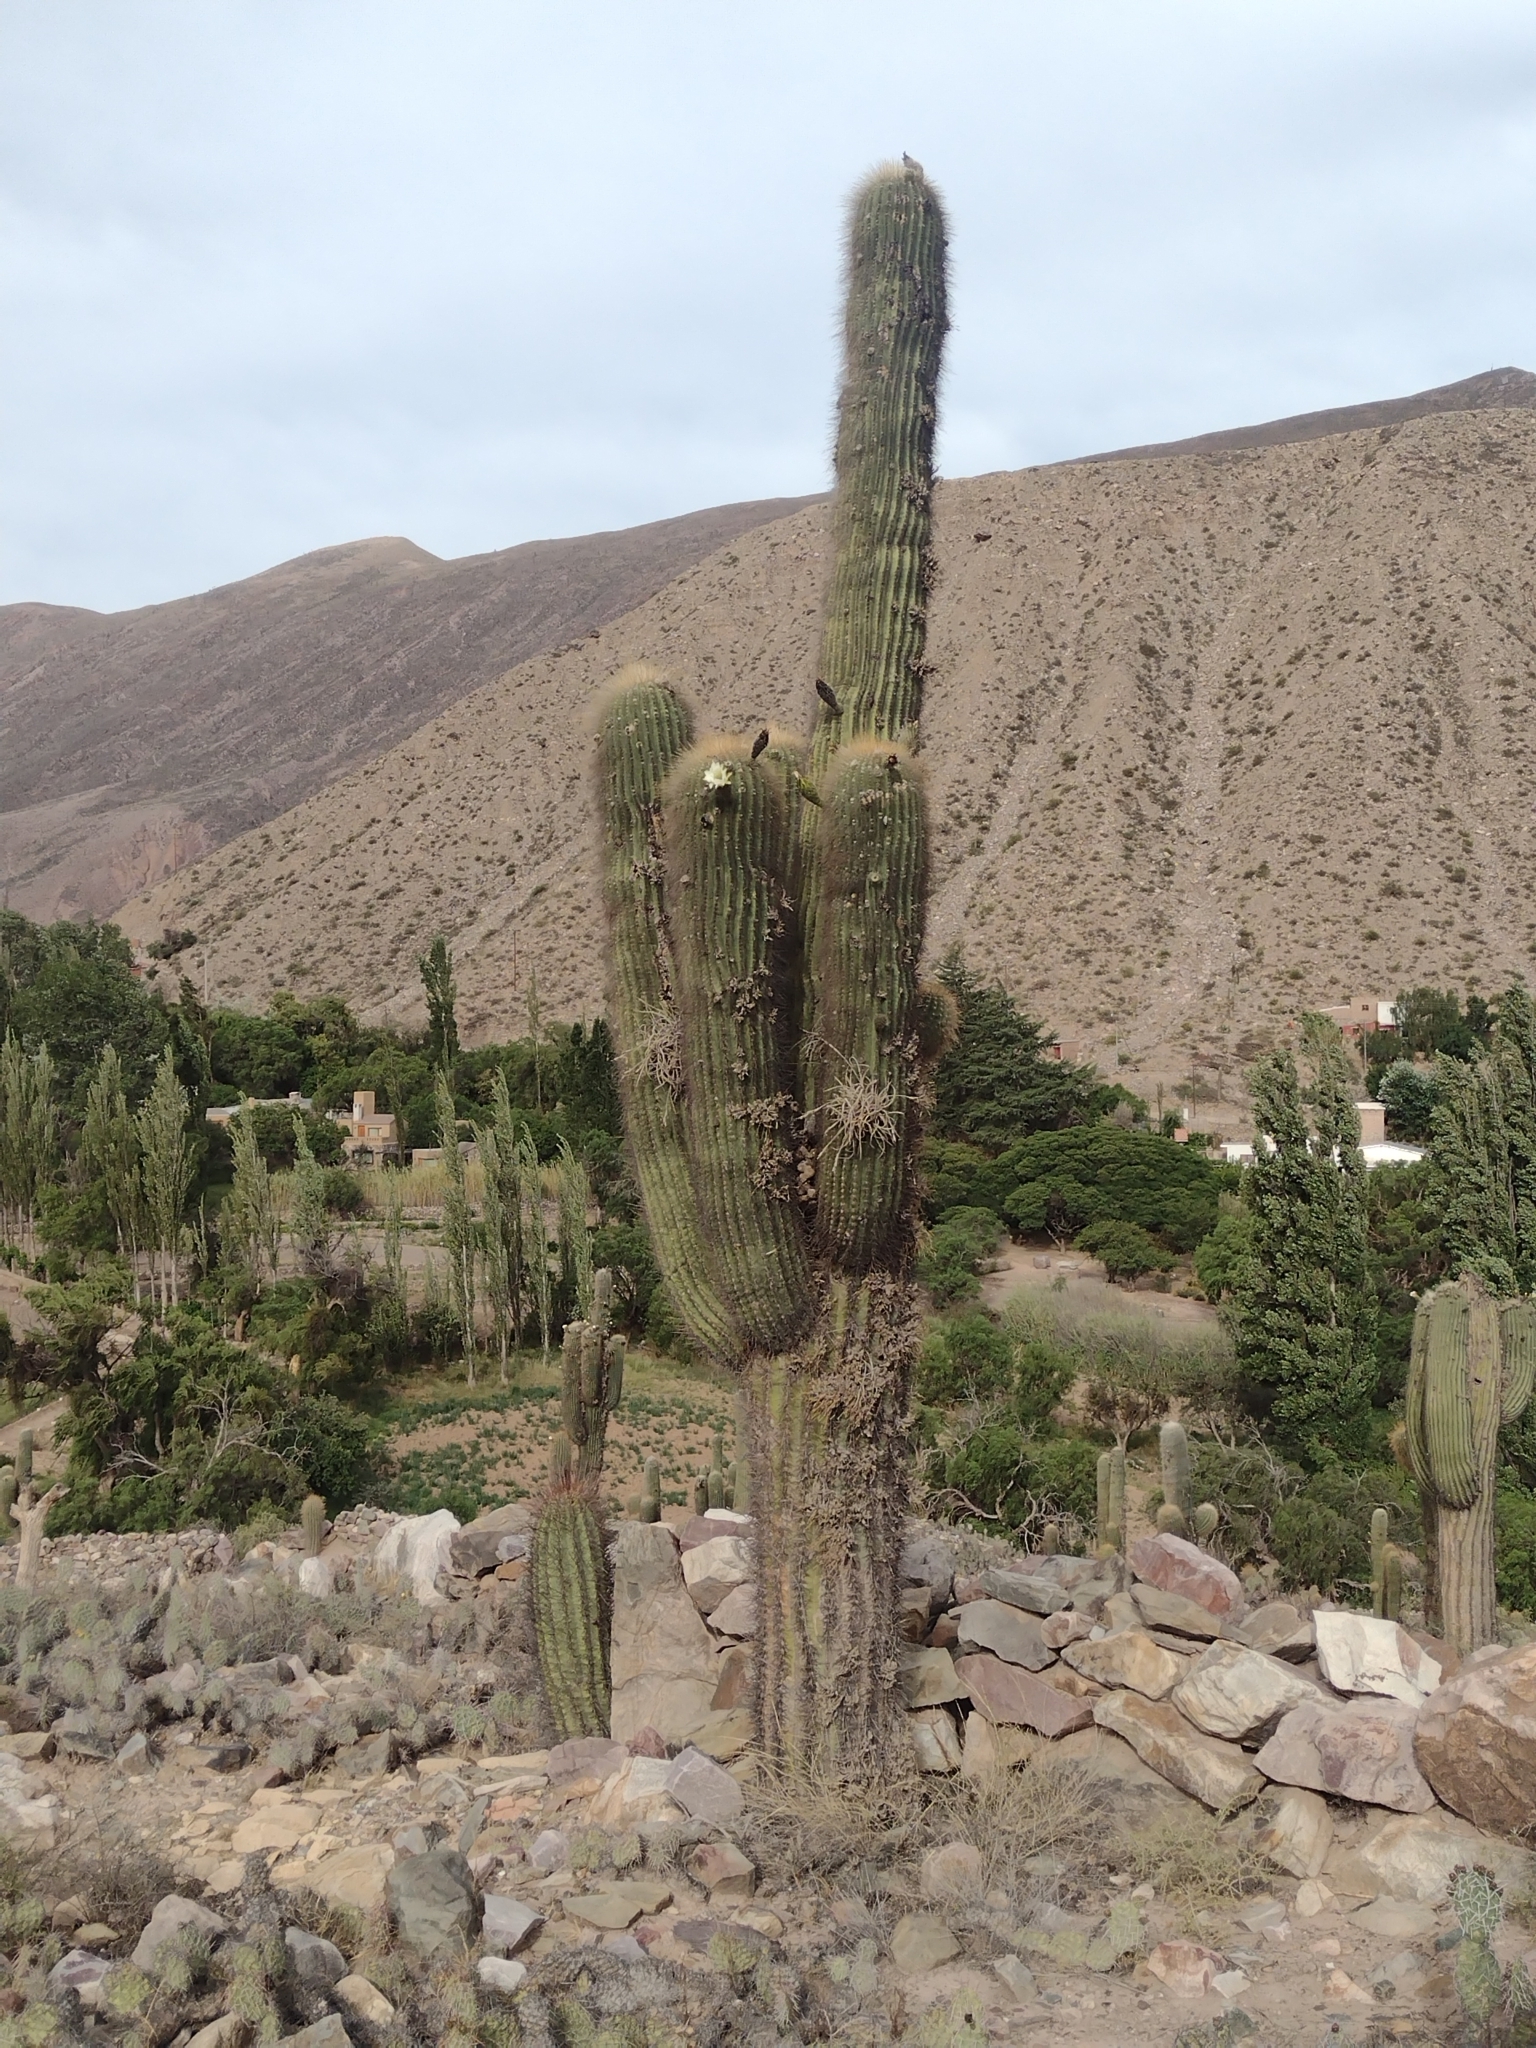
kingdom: Plantae
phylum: Tracheophyta
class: Magnoliopsida
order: Caryophyllales
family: Cactaceae
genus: Leucostele
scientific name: Leucostele atacamensis
